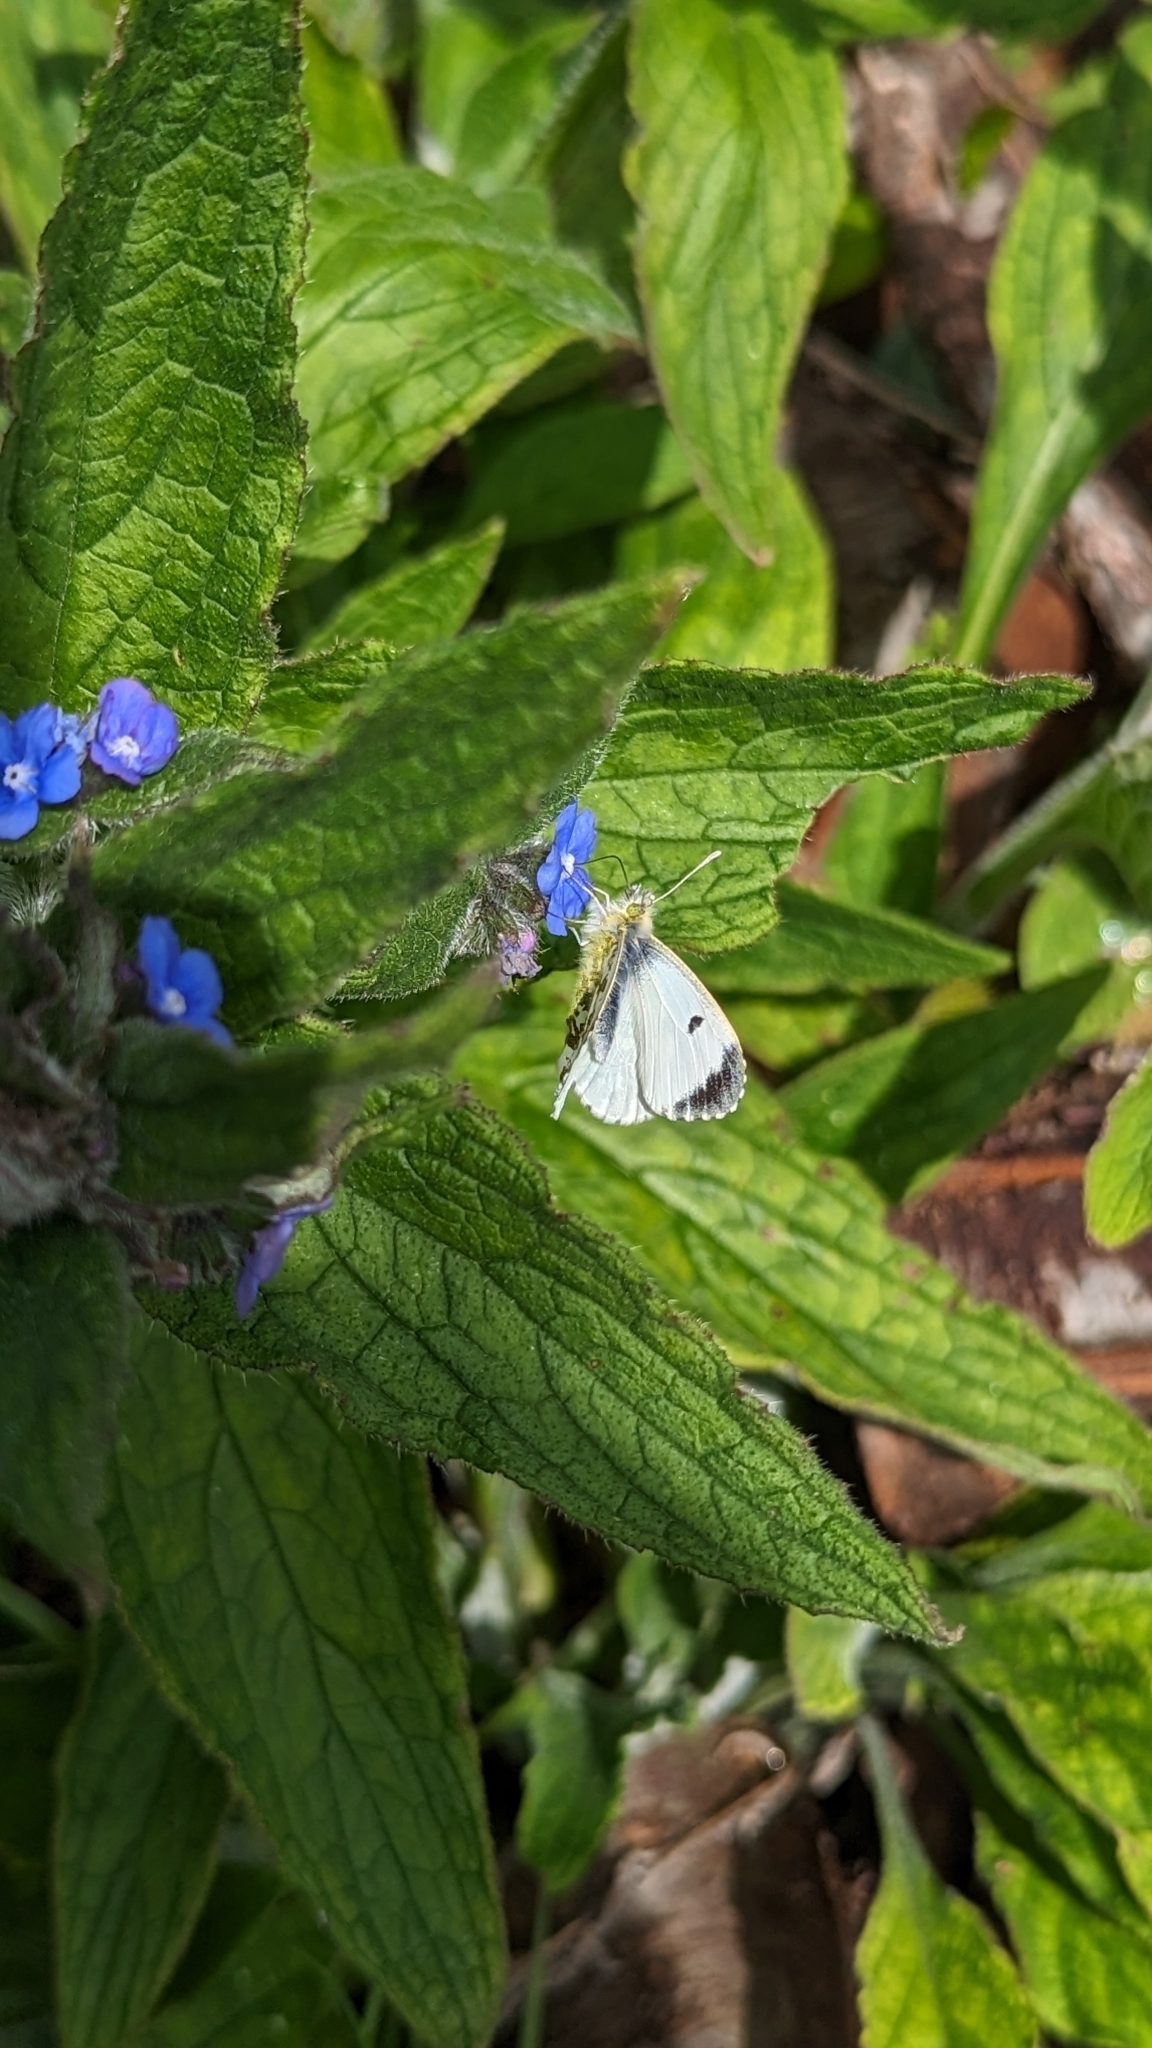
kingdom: Animalia
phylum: Arthropoda
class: Insecta
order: Lepidoptera
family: Pieridae
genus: Anthocharis
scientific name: Anthocharis cardamines
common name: Orange-tip
